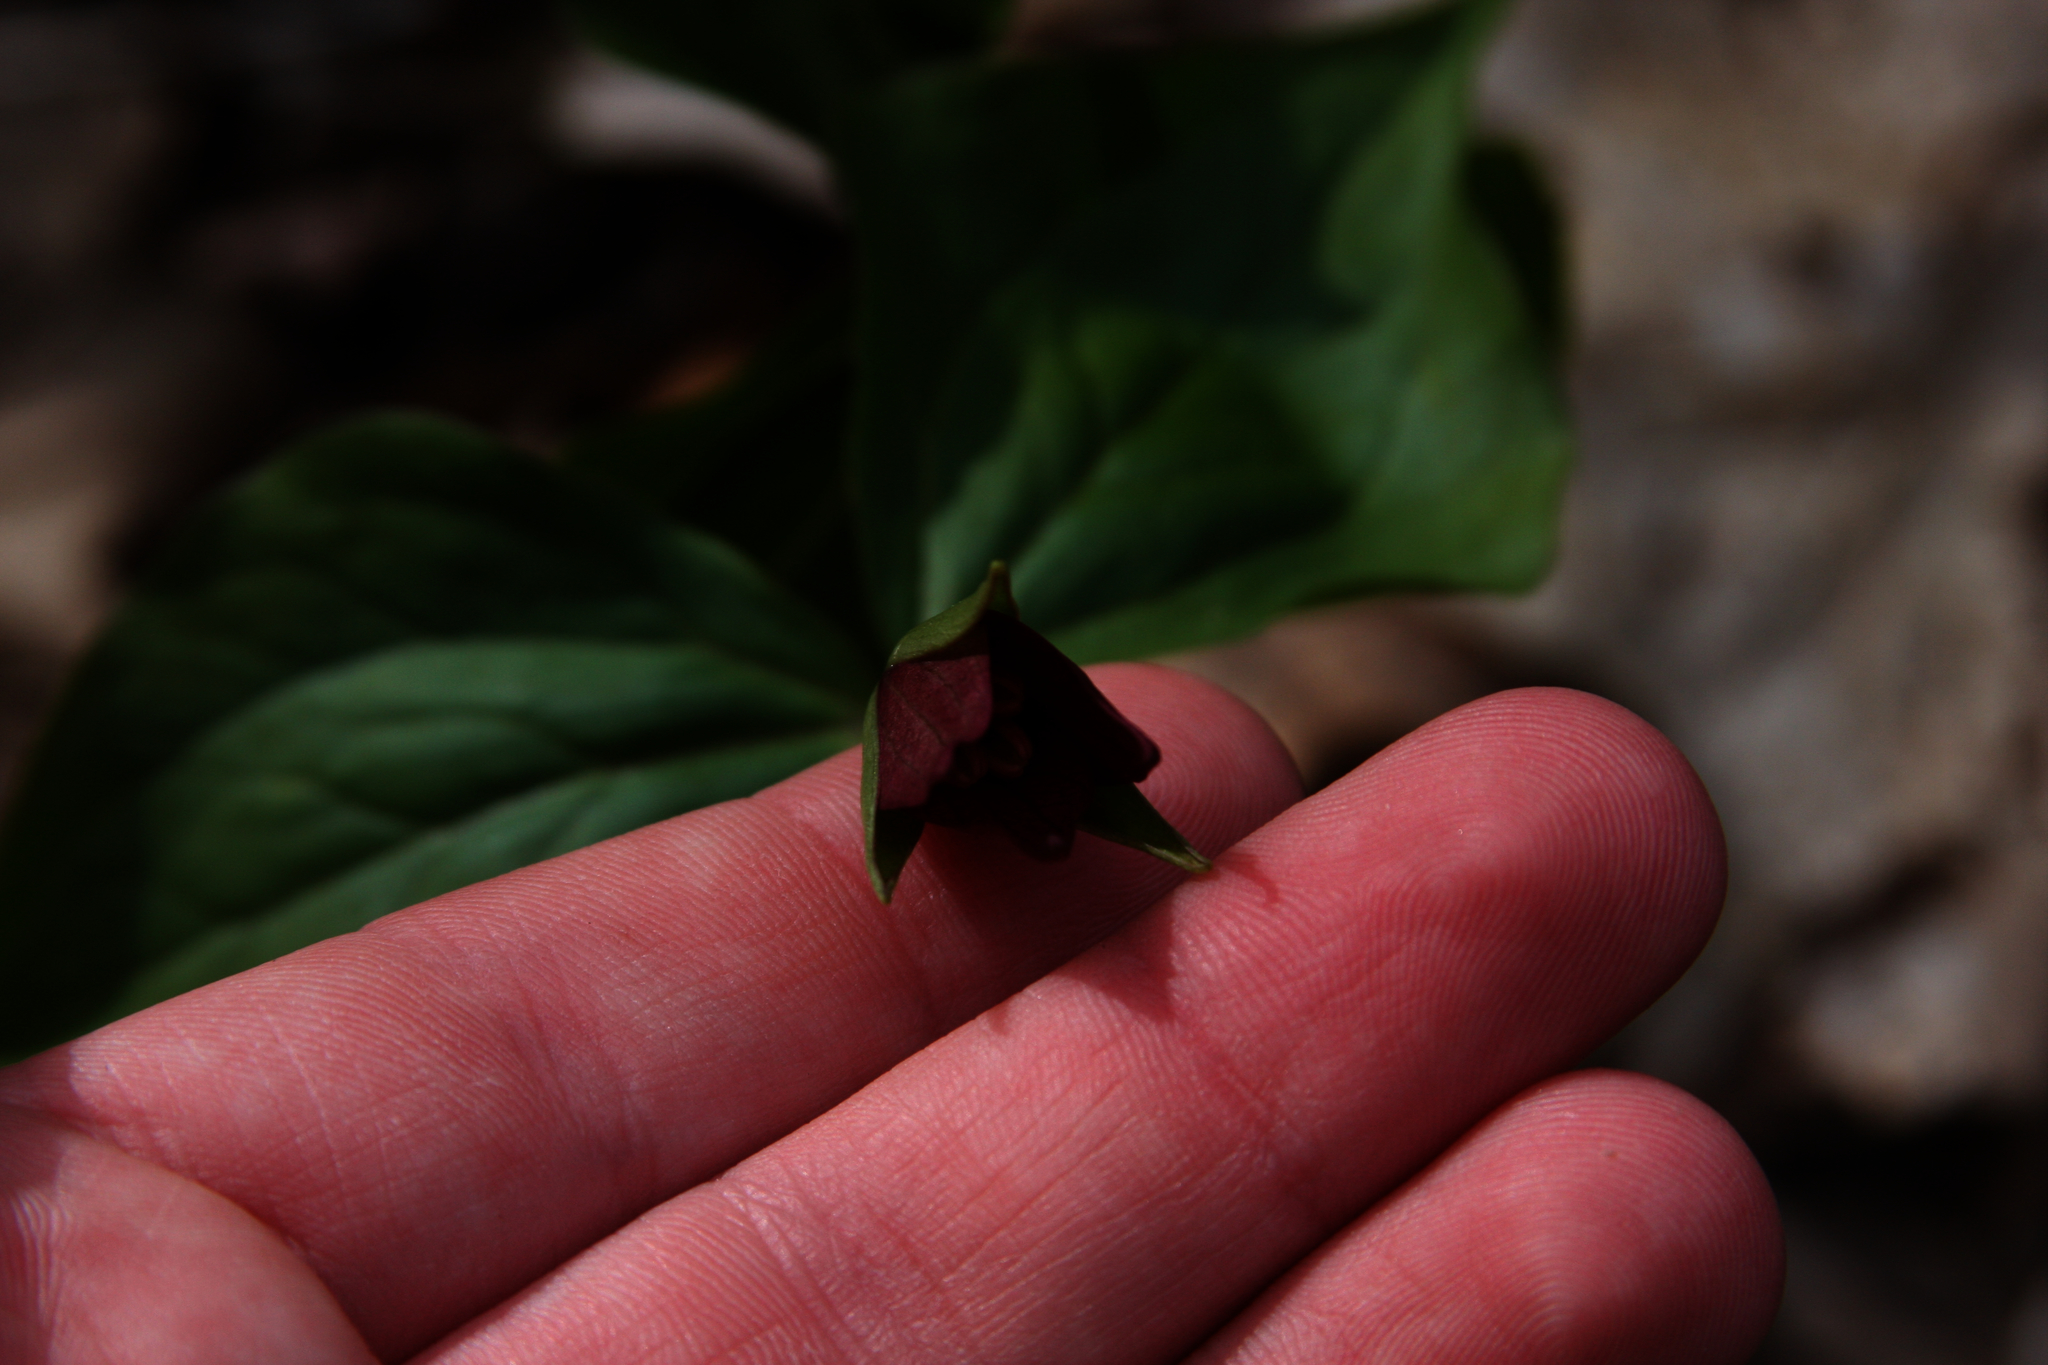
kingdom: Plantae
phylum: Tracheophyta
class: Liliopsida
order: Liliales
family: Melanthiaceae
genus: Trillium
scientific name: Trillium erectum
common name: Purple trillium
